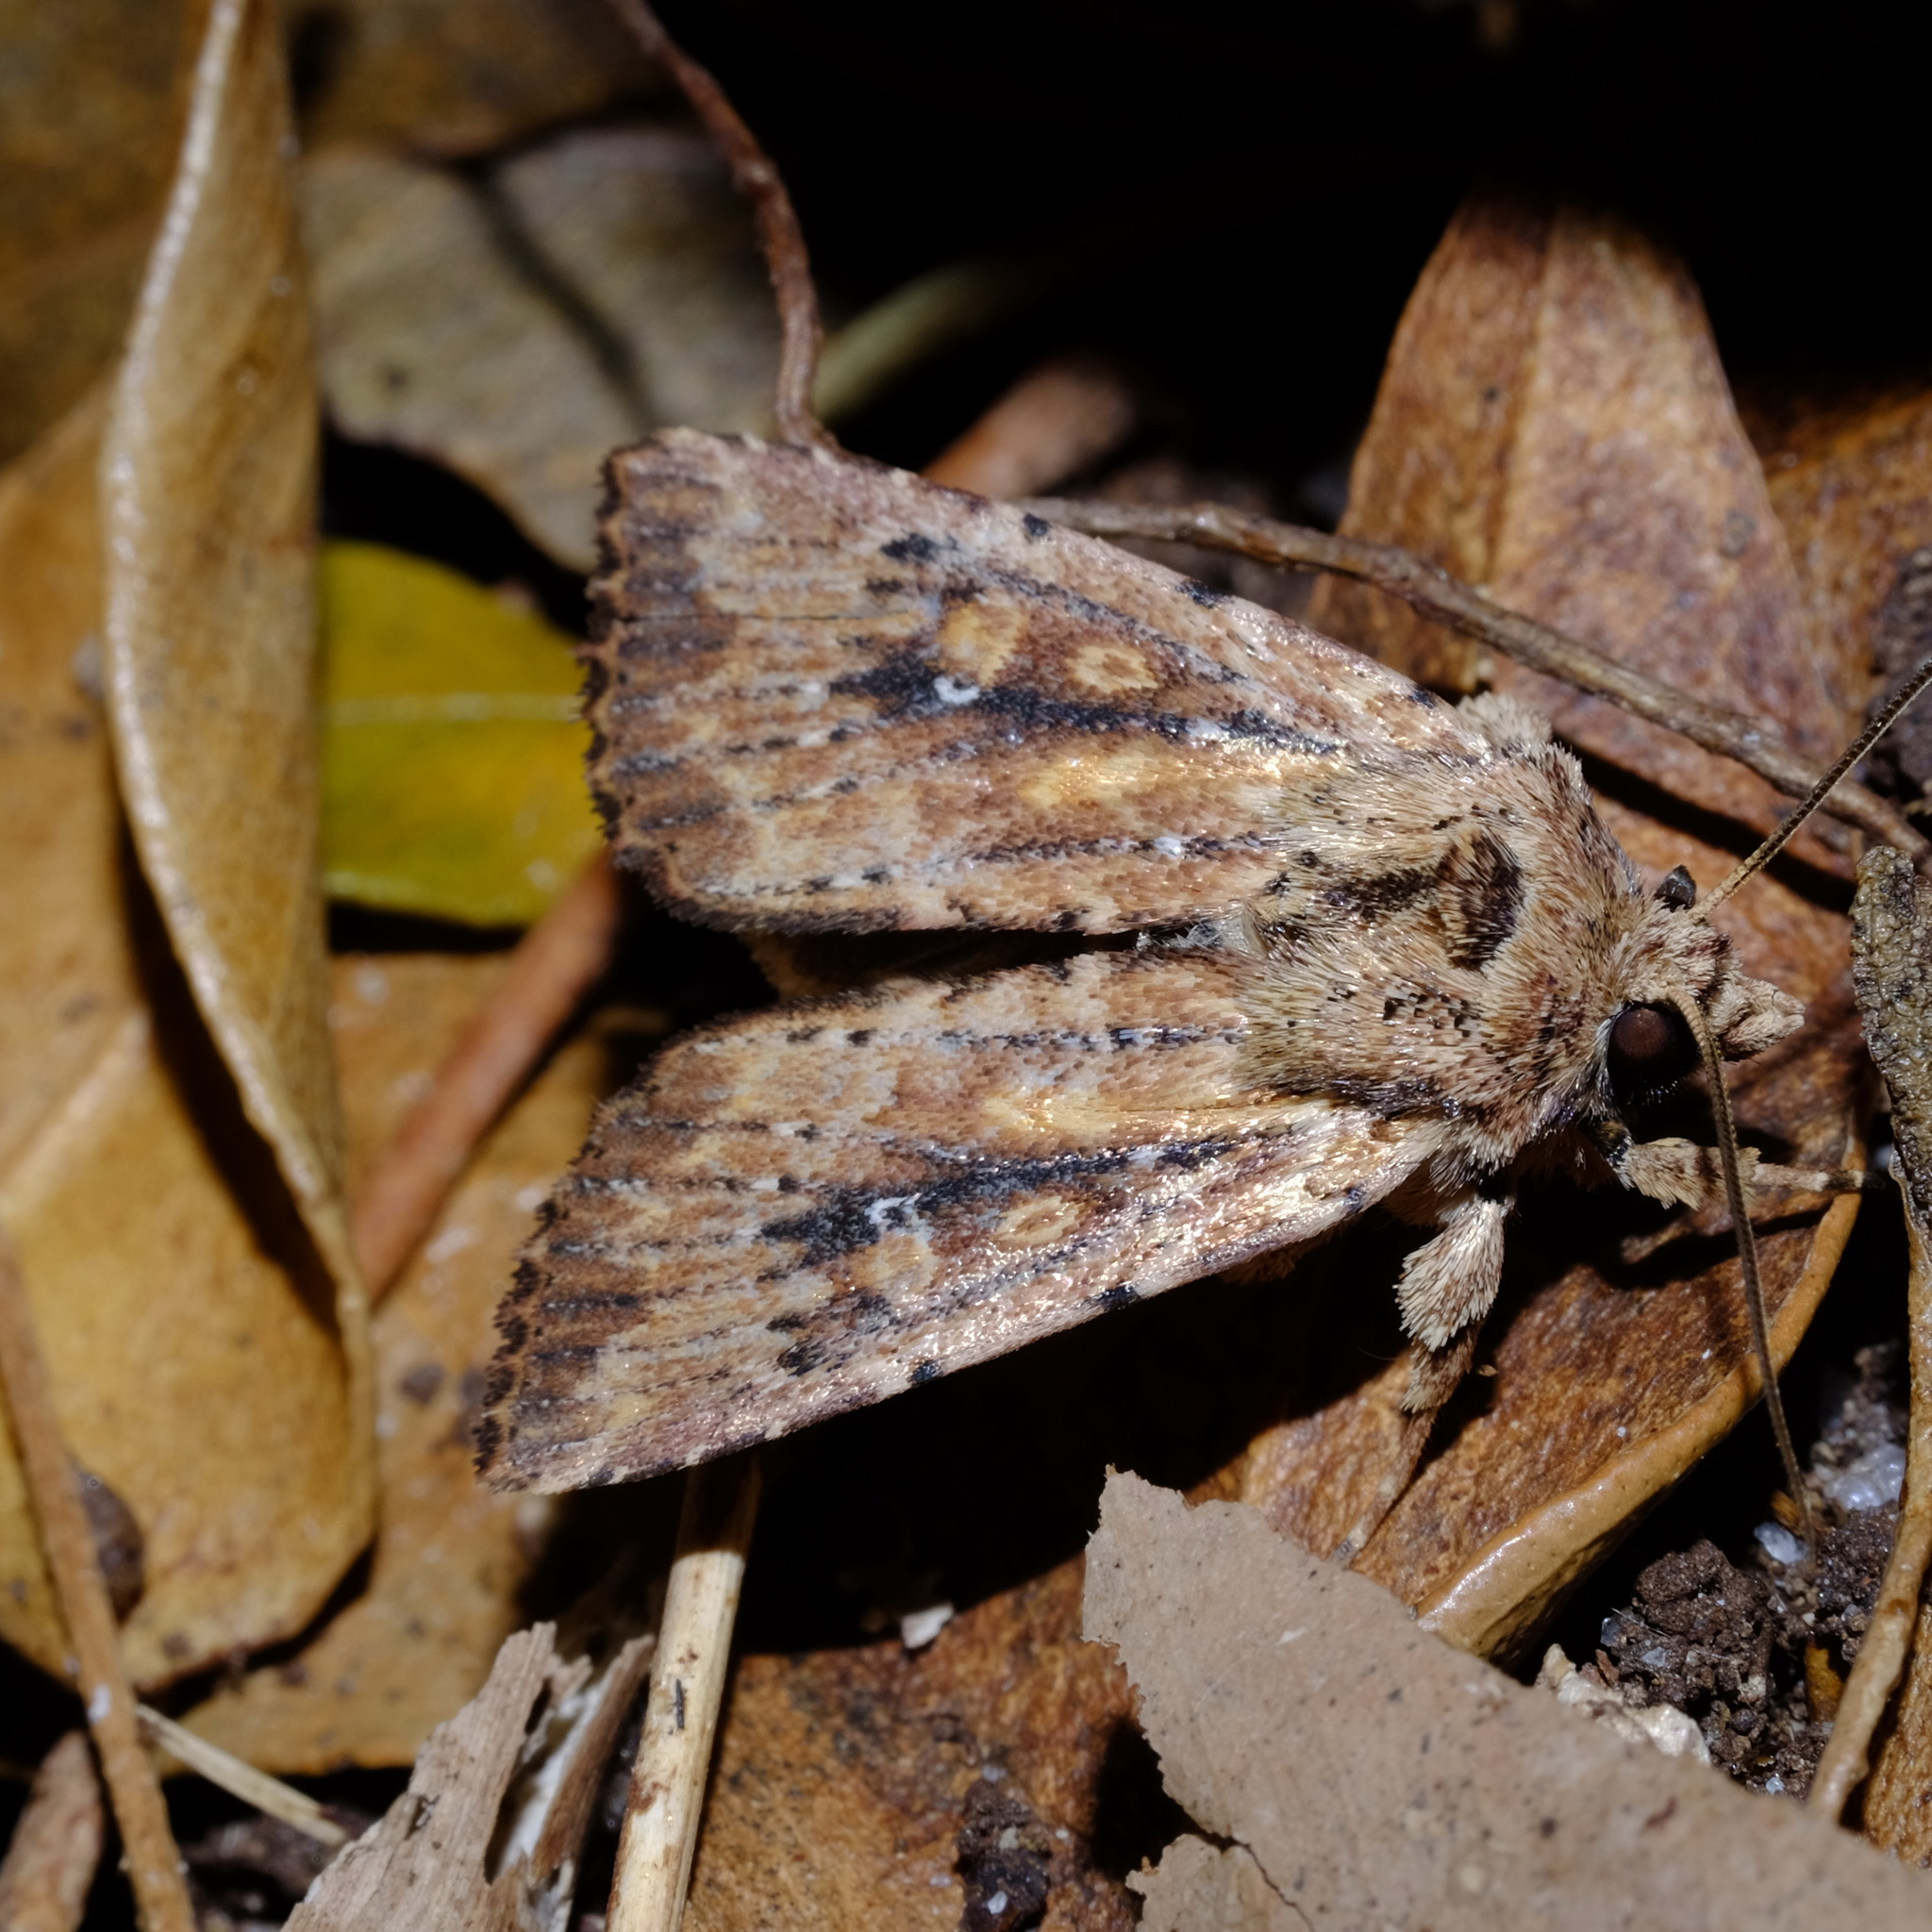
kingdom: Animalia
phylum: Arthropoda
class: Insecta
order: Lepidoptera
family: Noctuidae
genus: Dasygaster
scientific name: Dasygaster padockina
